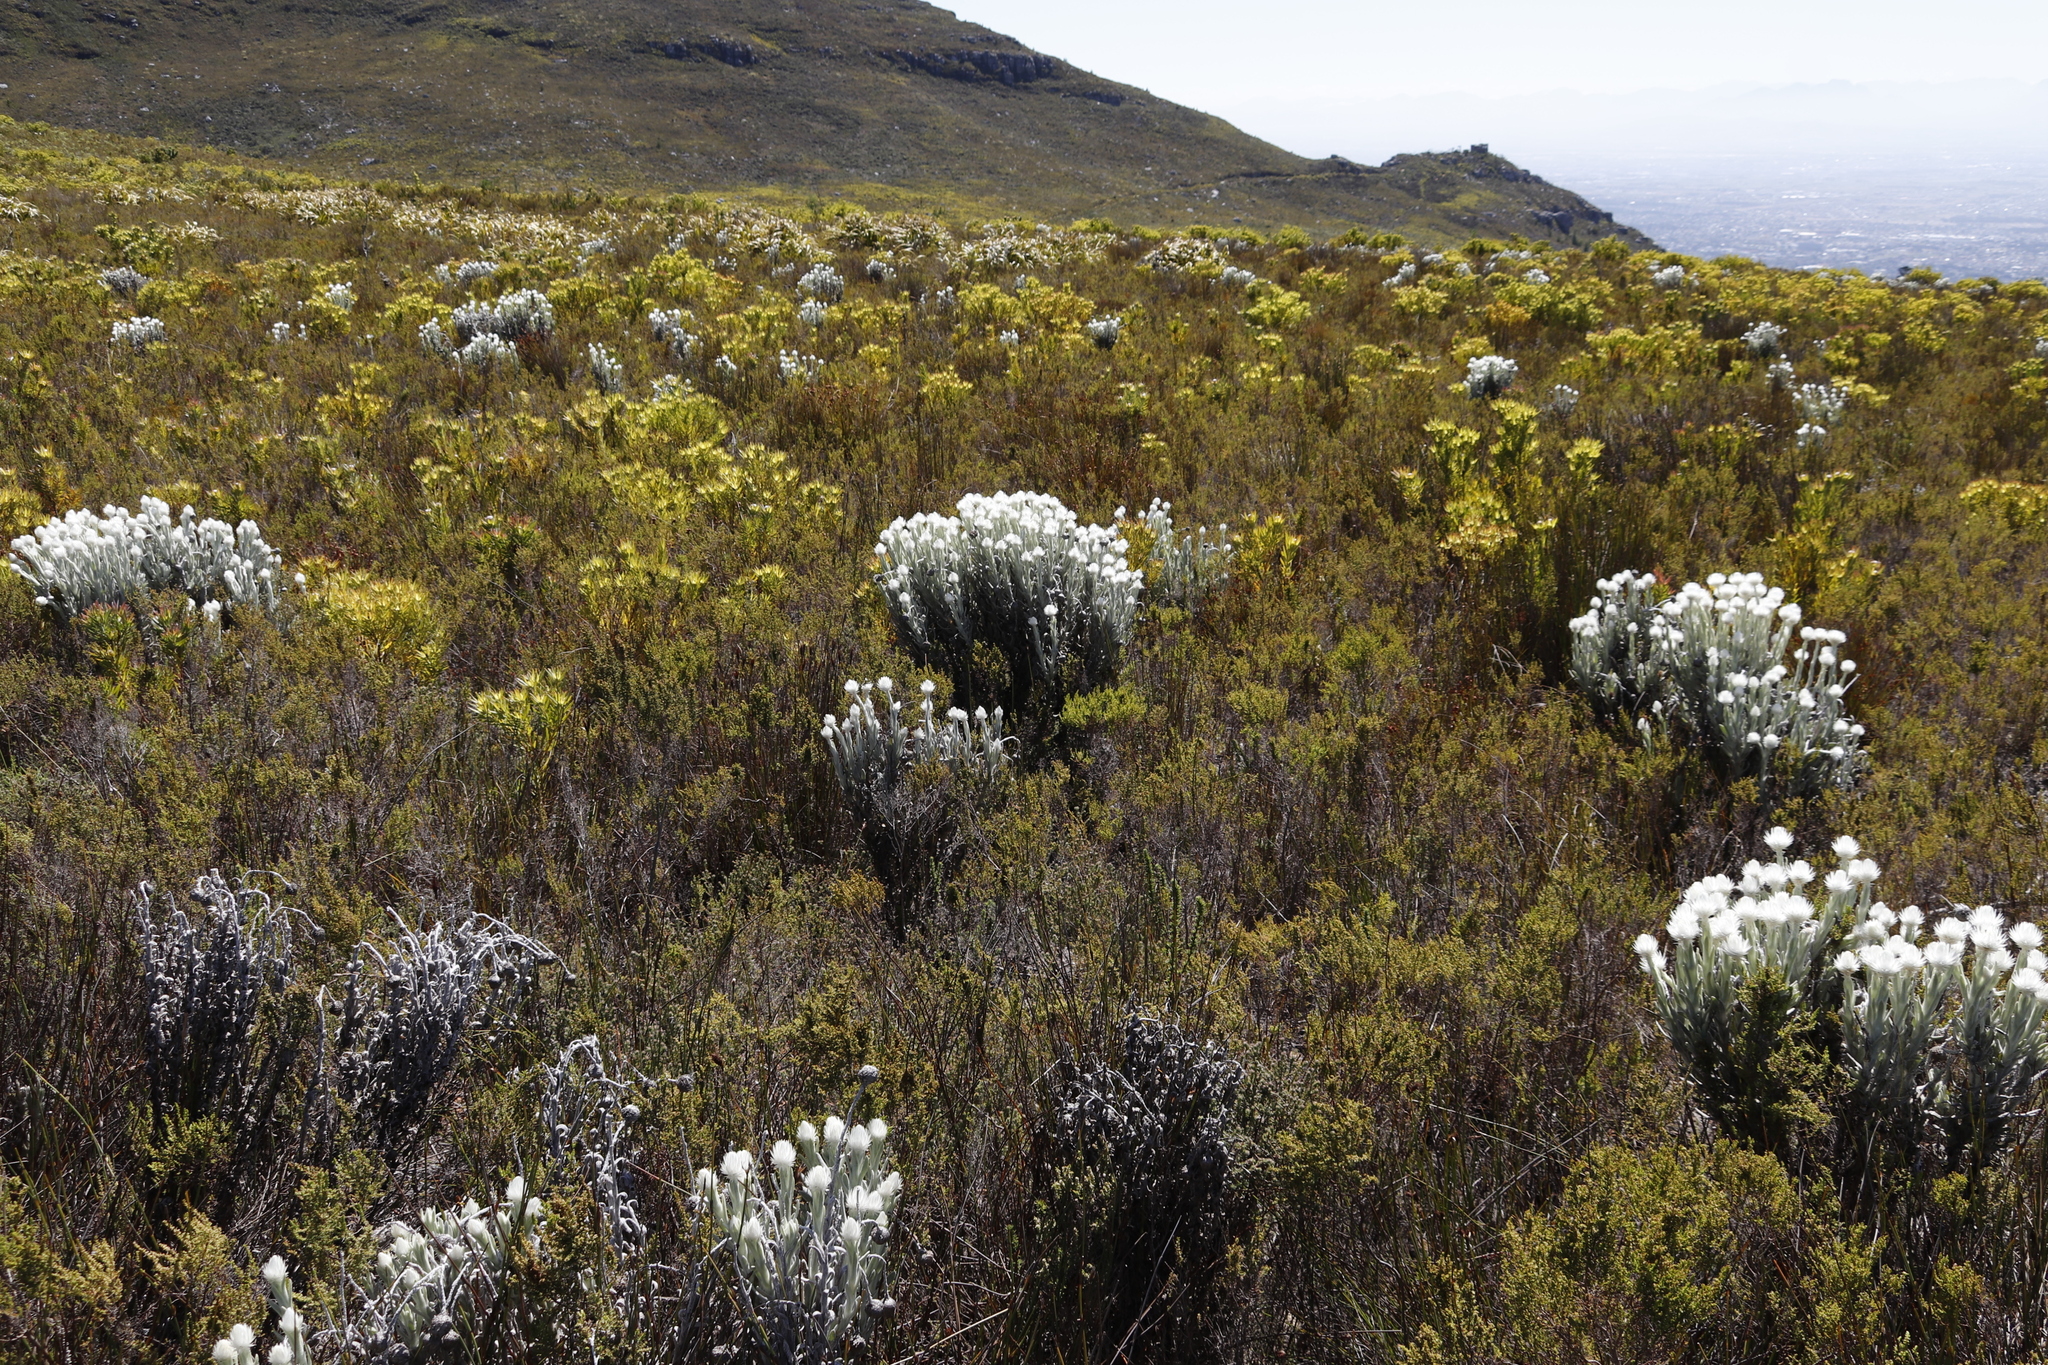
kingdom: Plantae
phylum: Tracheophyta
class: Magnoliopsida
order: Asterales
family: Asteraceae
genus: Syncarpha
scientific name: Syncarpha vestita
